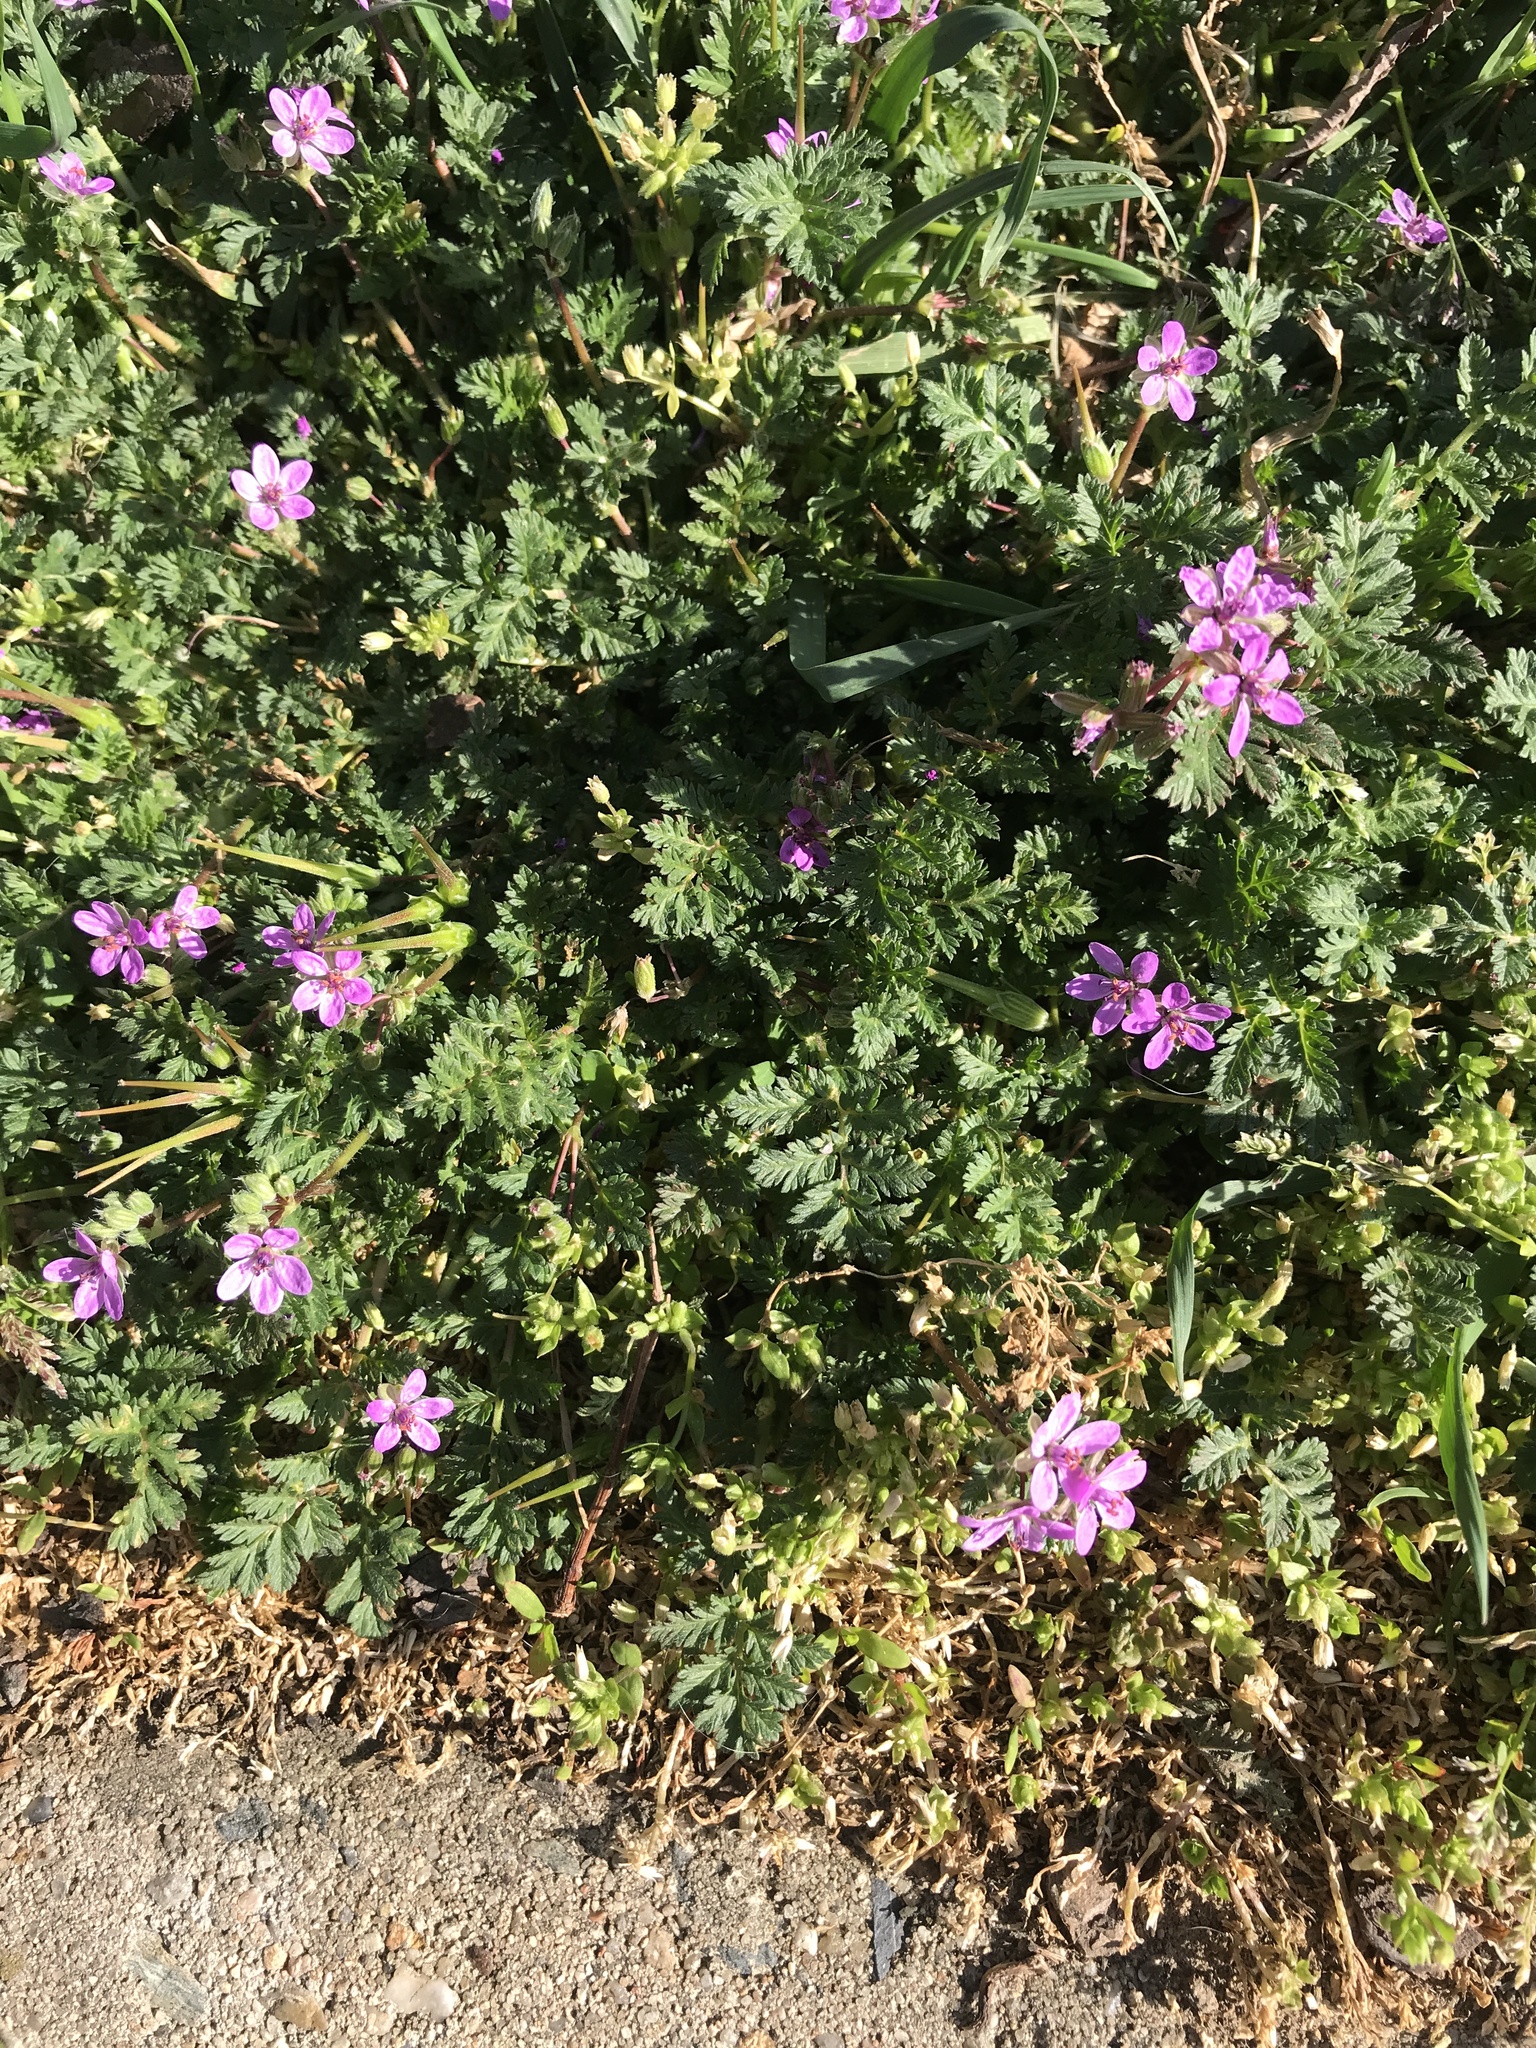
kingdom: Plantae
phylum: Tracheophyta
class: Magnoliopsida
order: Geraniales
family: Geraniaceae
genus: Erodium
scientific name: Erodium cicutarium
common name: Common stork's-bill
